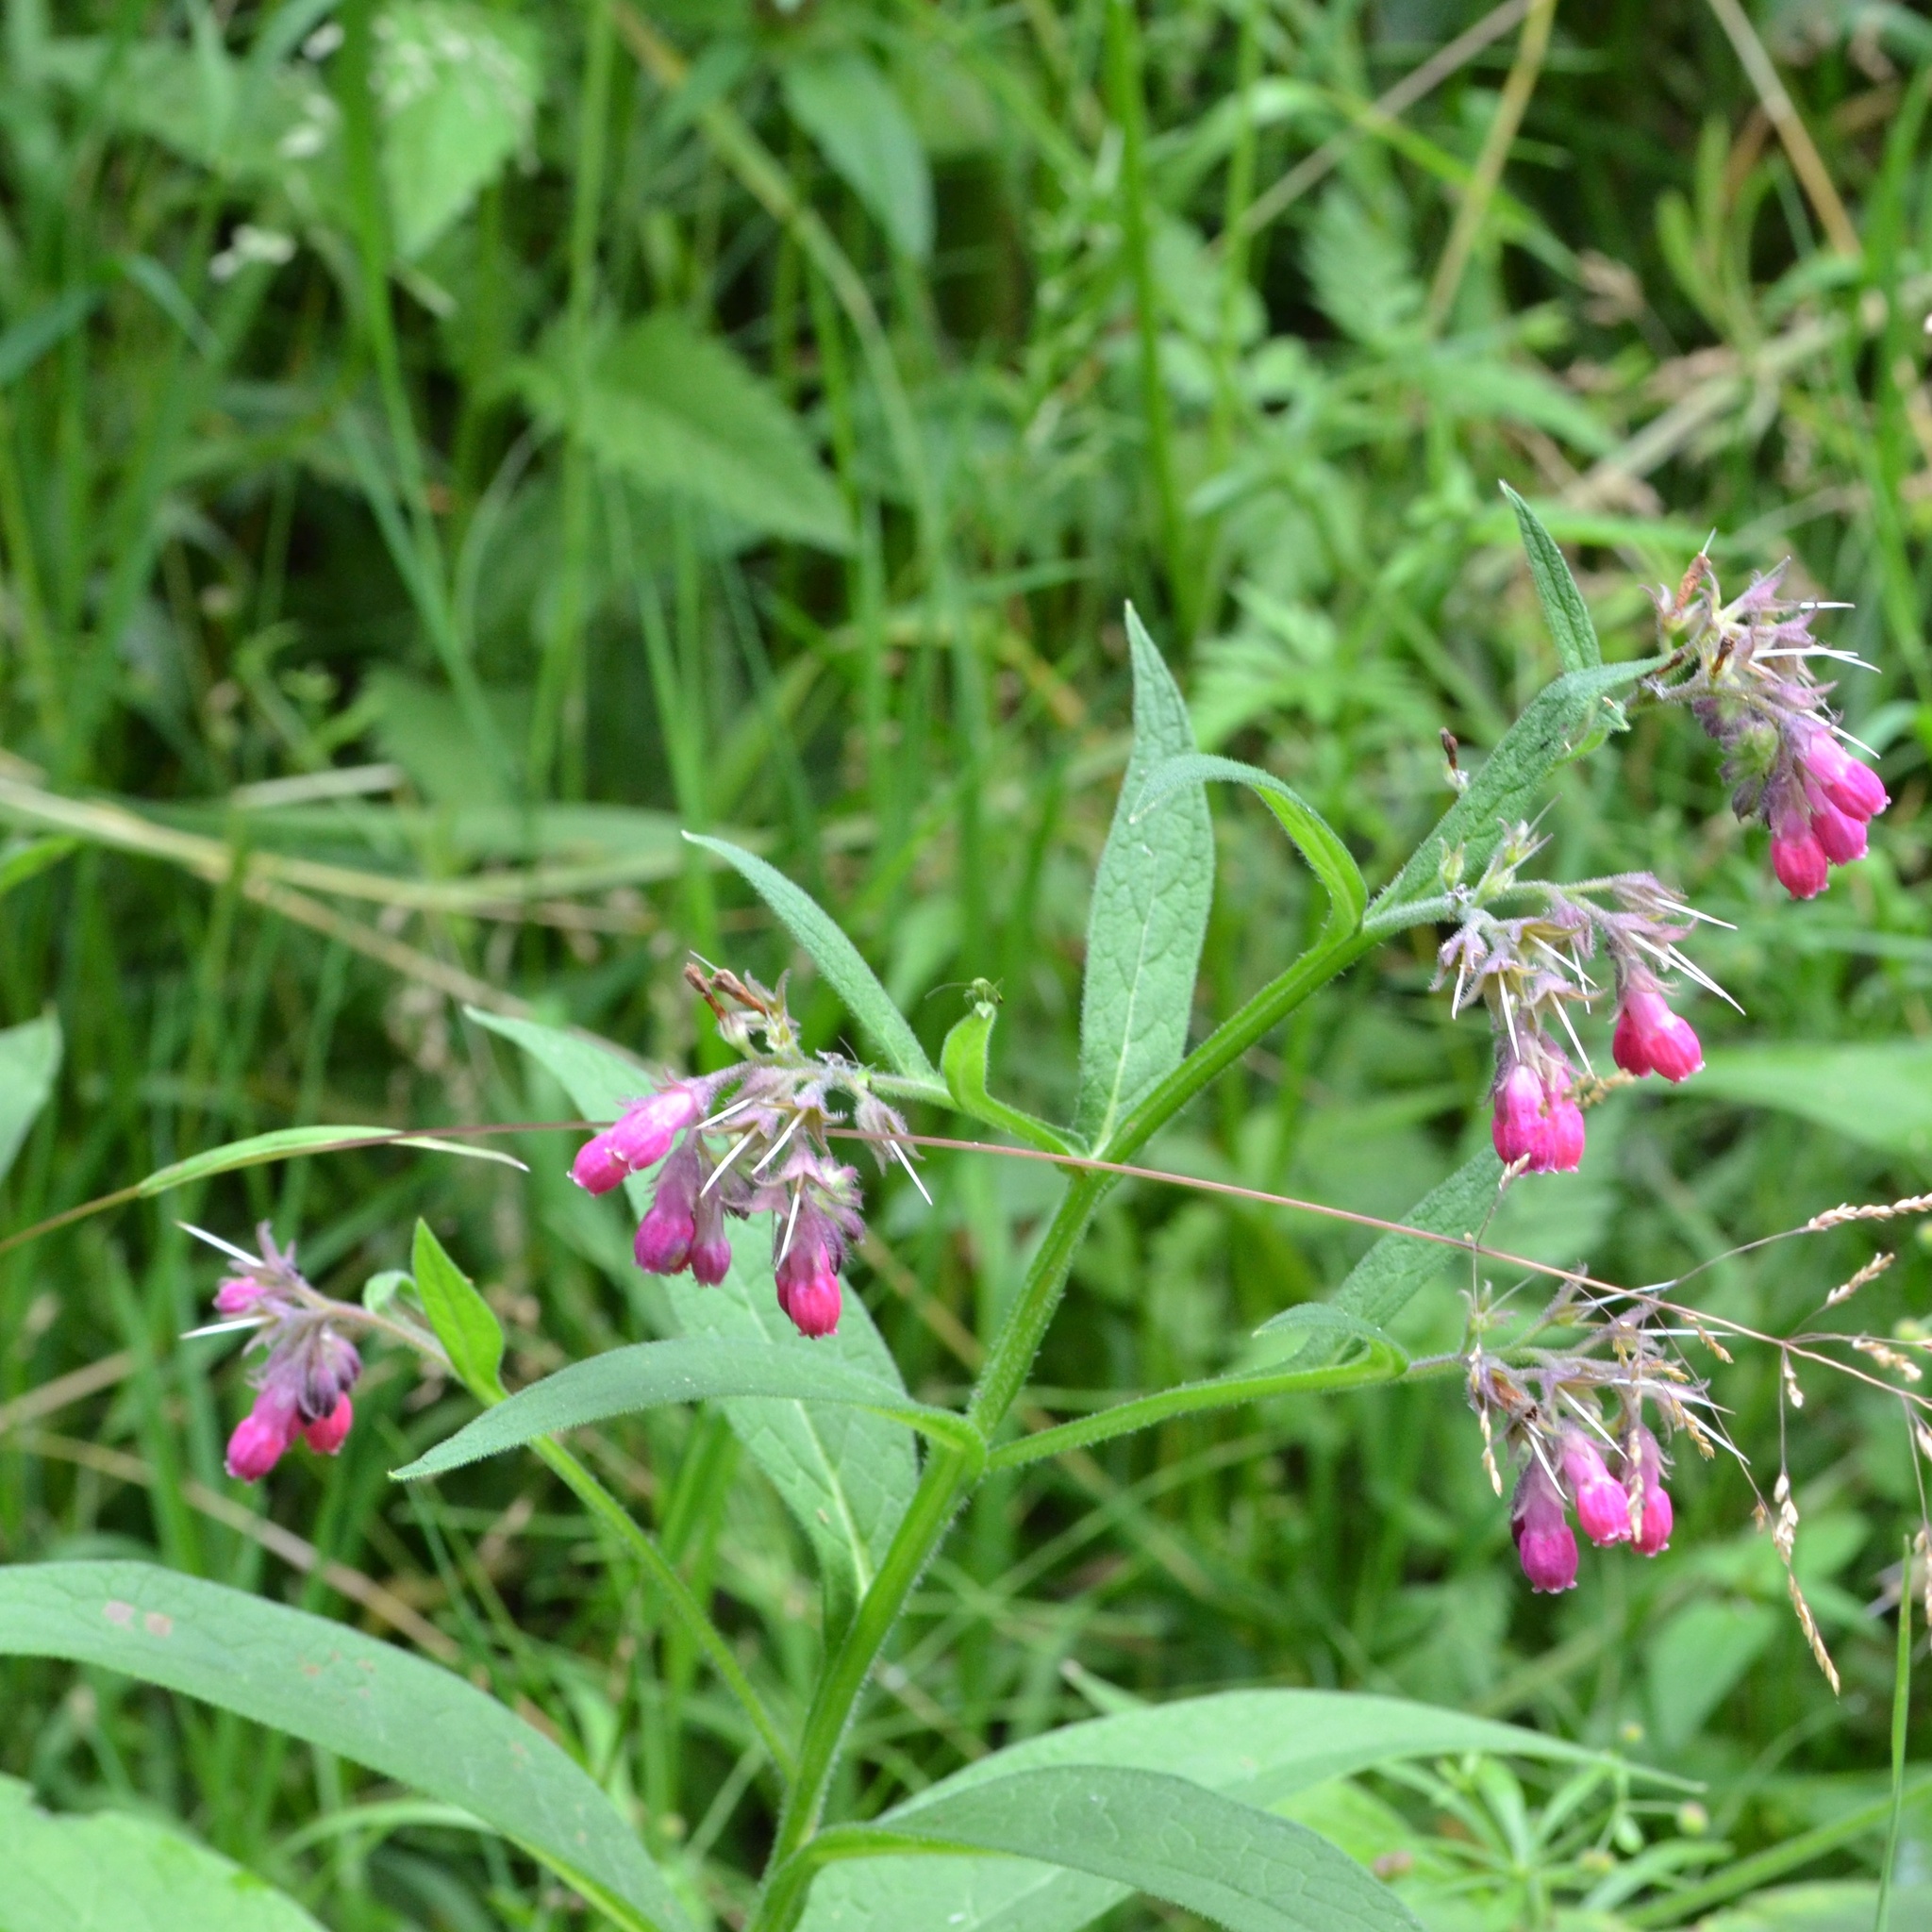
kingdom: Plantae
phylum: Tracheophyta
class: Magnoliopsida
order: Boraginales
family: Boraginaceae
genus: Symphytum
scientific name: Symphytum officinale
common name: Common comfrey
